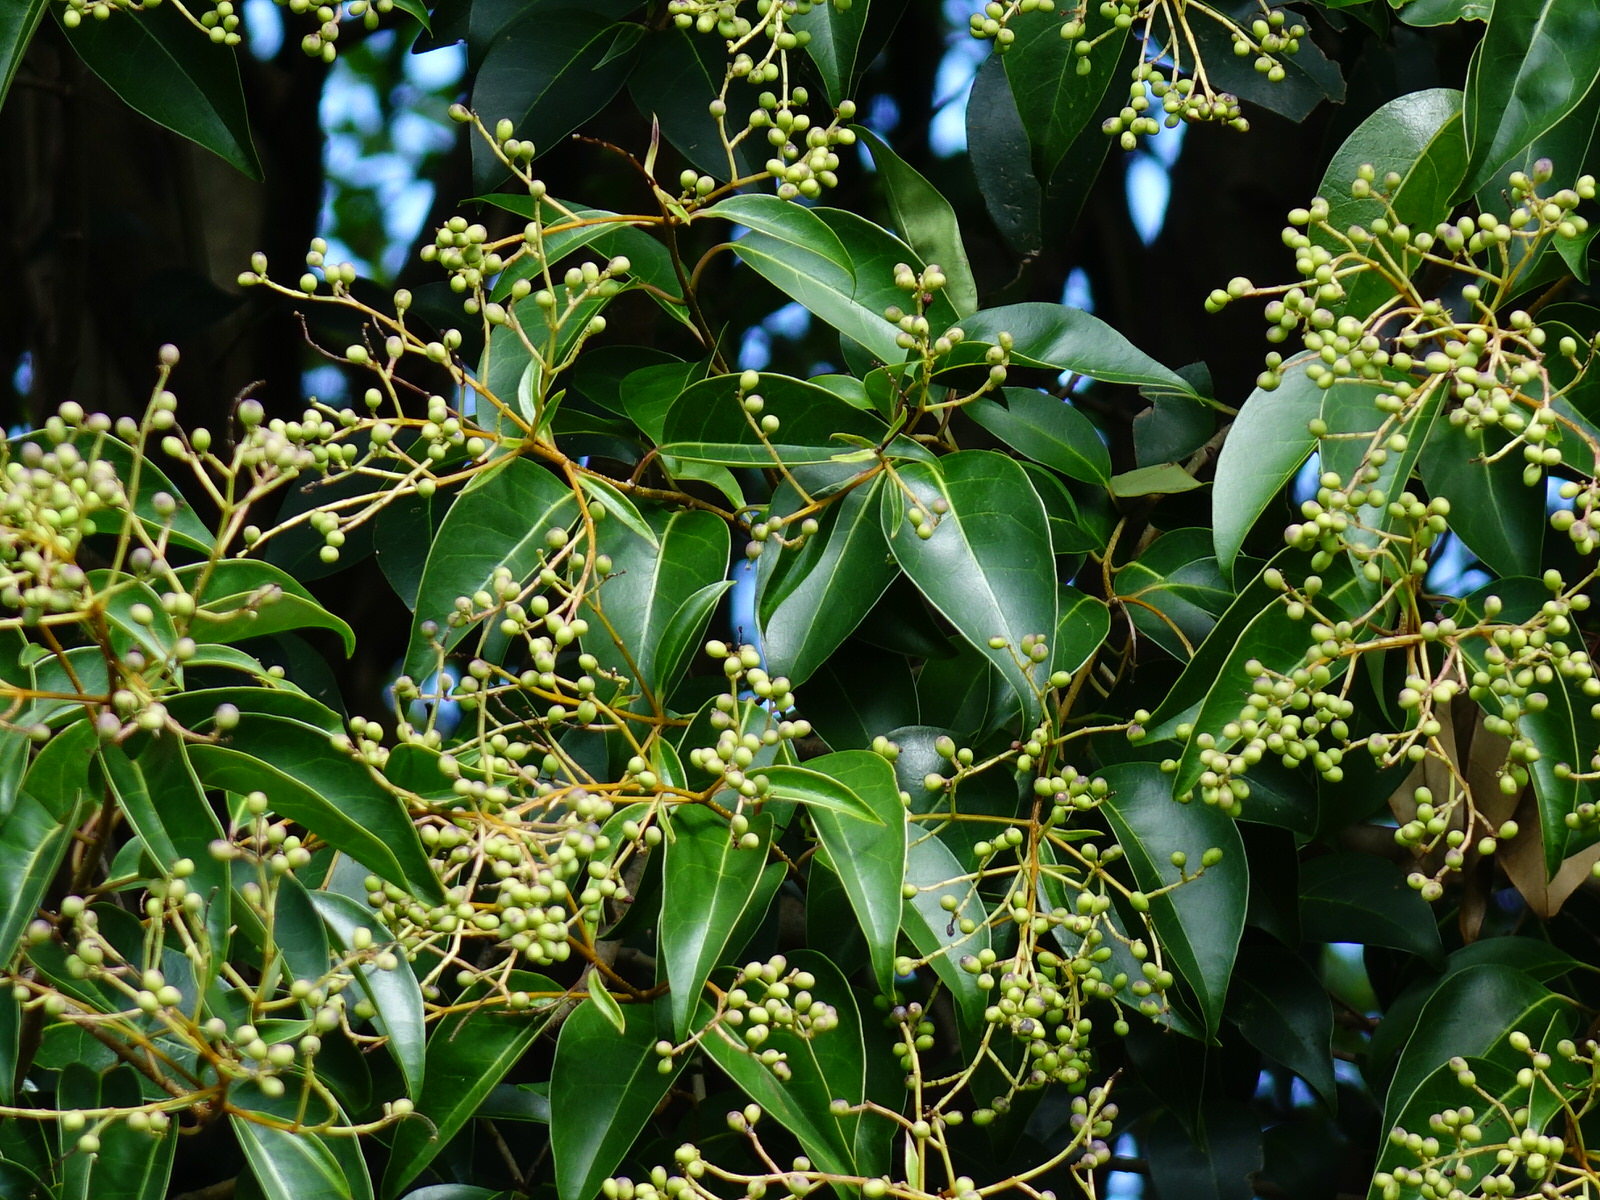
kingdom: Plantae
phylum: Tracheophyta
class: Magnoliopsida
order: Lamiales
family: Oleaceae
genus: Ligustrum
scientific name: Ligustrum lucidum
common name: Glossy privet
